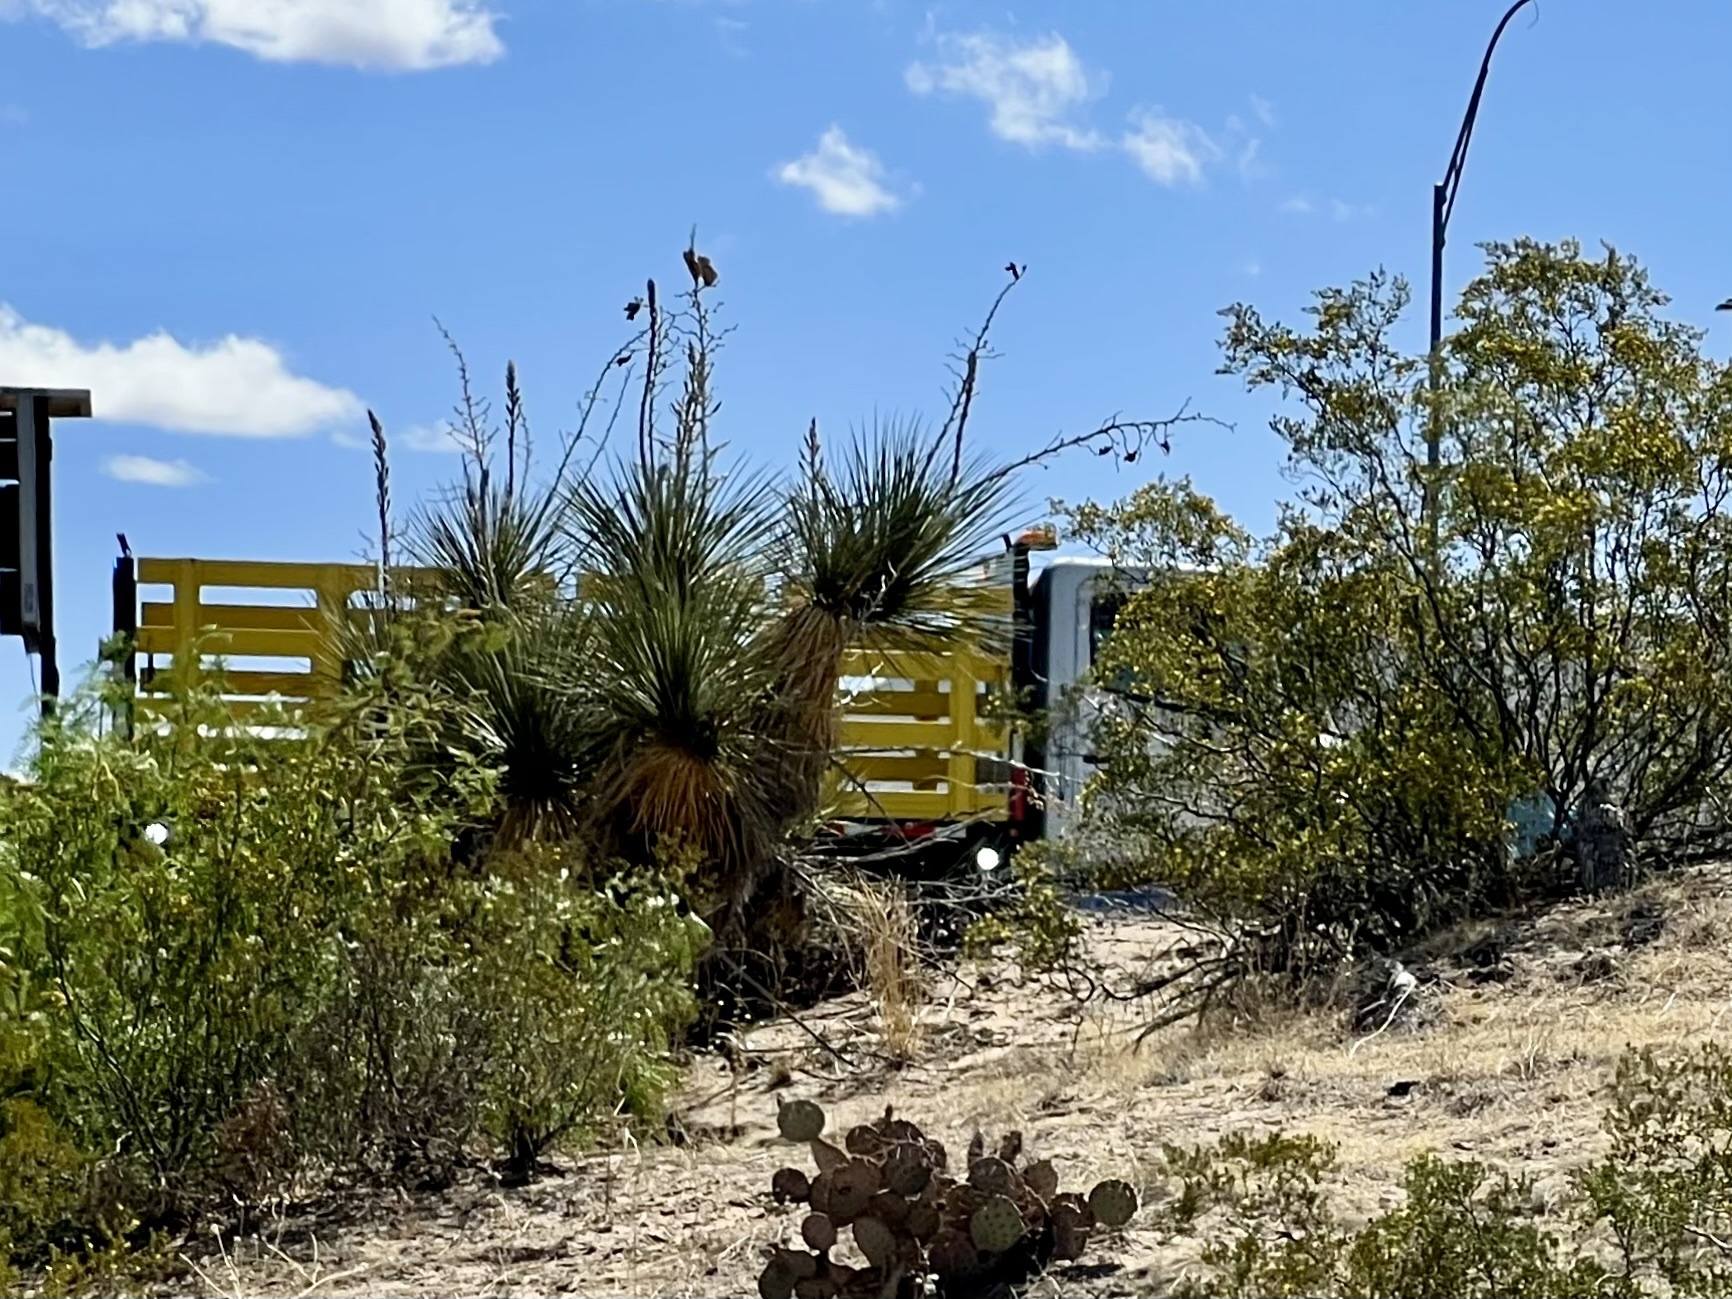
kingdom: Plantae
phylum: Tracheophyta
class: Liliopsida
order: Asparagales
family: Asparagaceae
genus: Yucca
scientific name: Yucca elata
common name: Palmella
